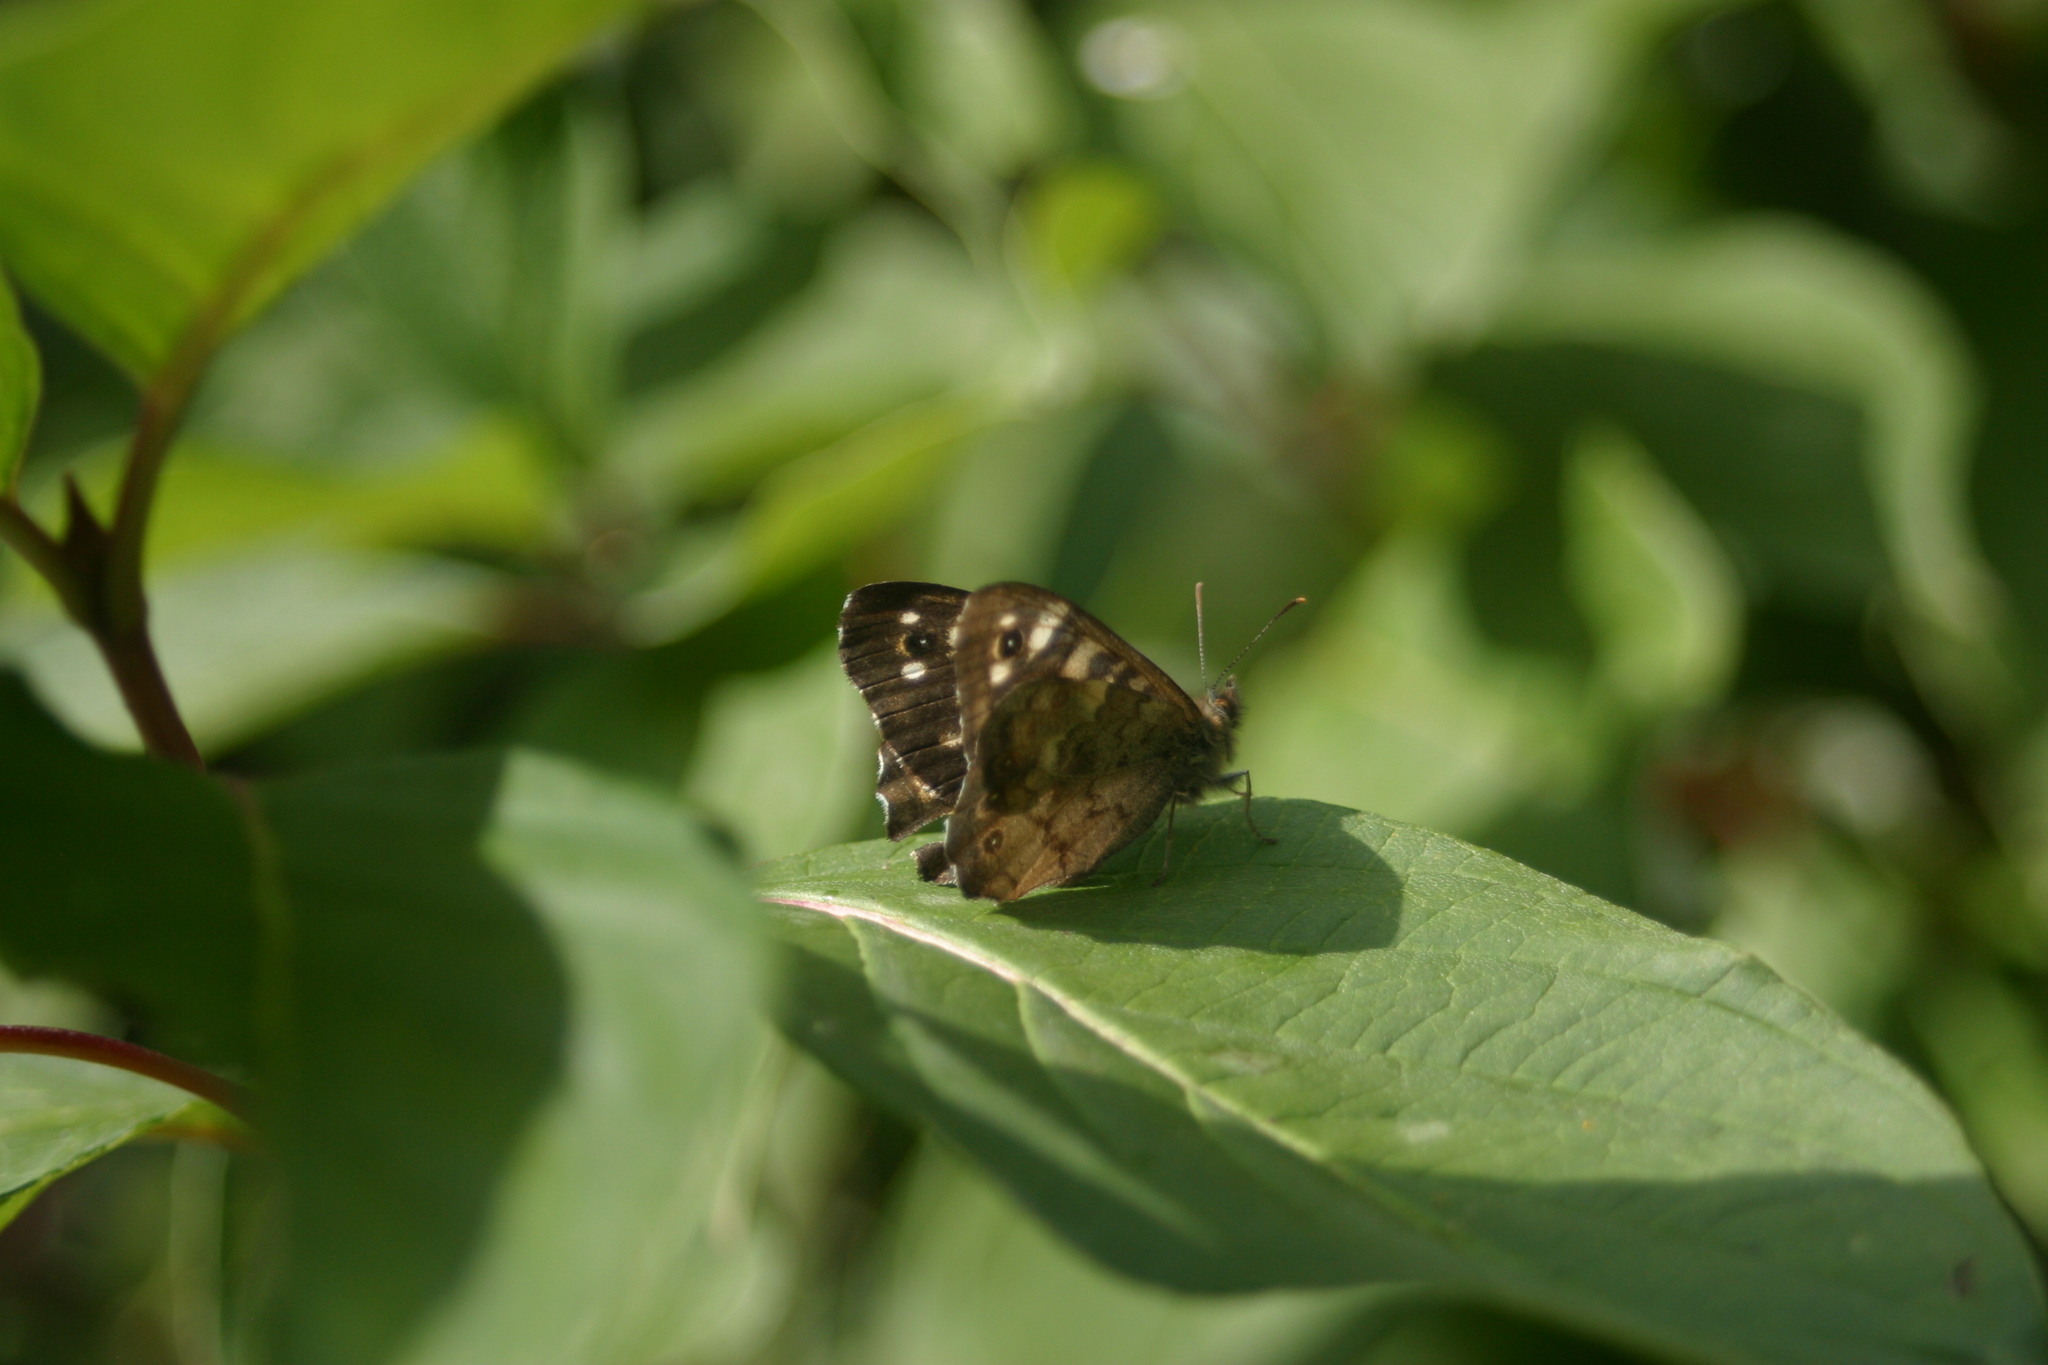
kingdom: Animalia
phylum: Arthropoda
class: Insecta
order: Lepidoptera
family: Nymphalidae
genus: Pararge
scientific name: Pararge aegeria
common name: Speckled wood
